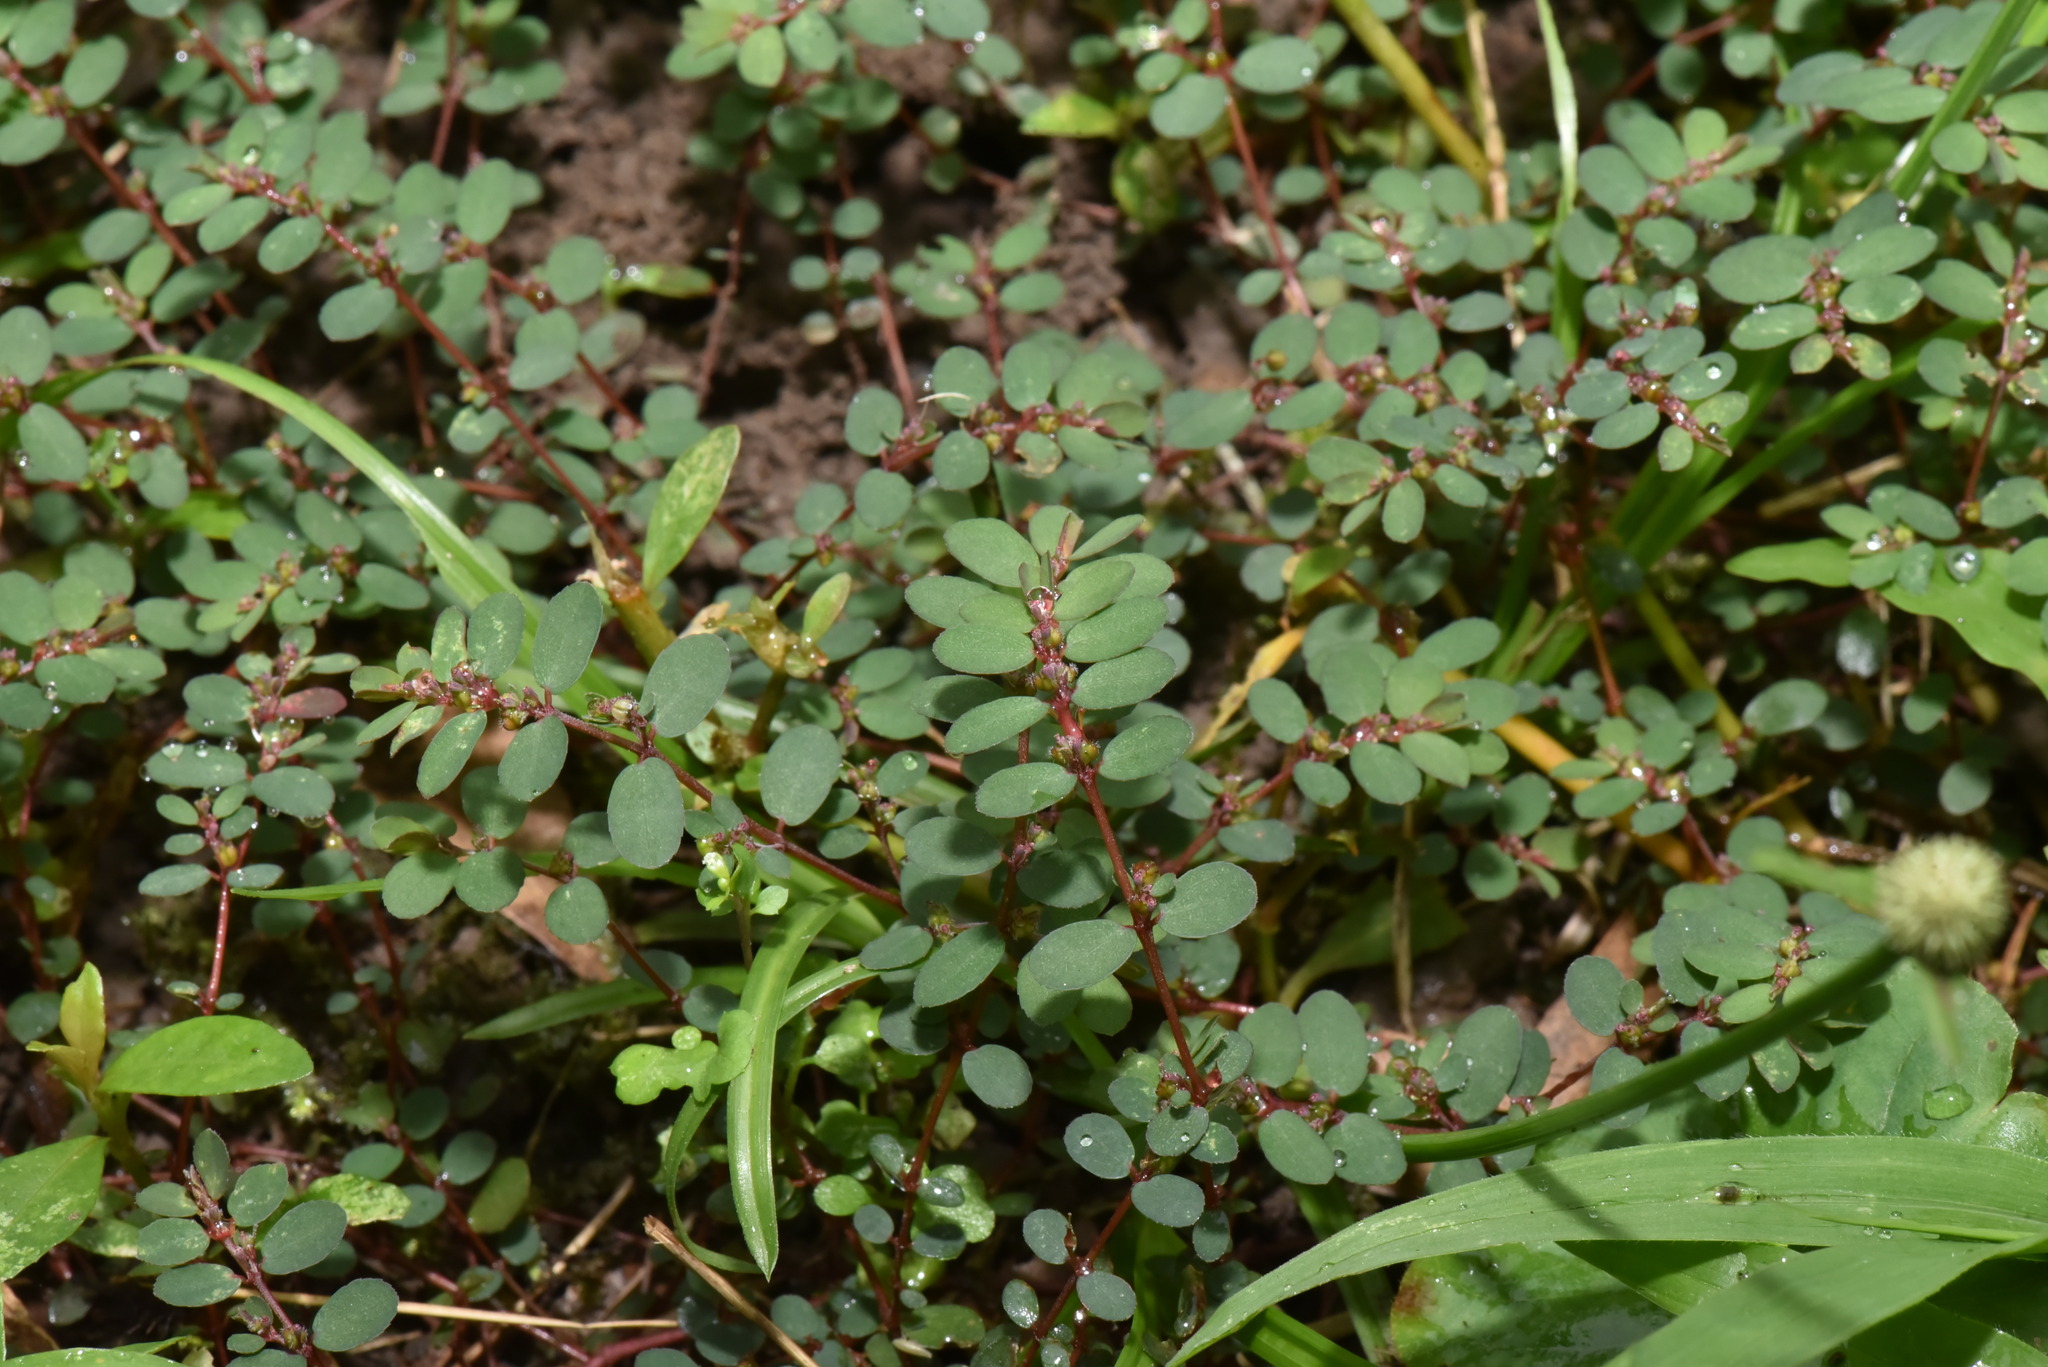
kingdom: Plantae
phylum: Tracheophyta
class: Magnoliopsida
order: Malpighiales
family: Euphorbiaceae
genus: Euphorbia
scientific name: Euphorbia prostrata
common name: Prostrate sandmat
